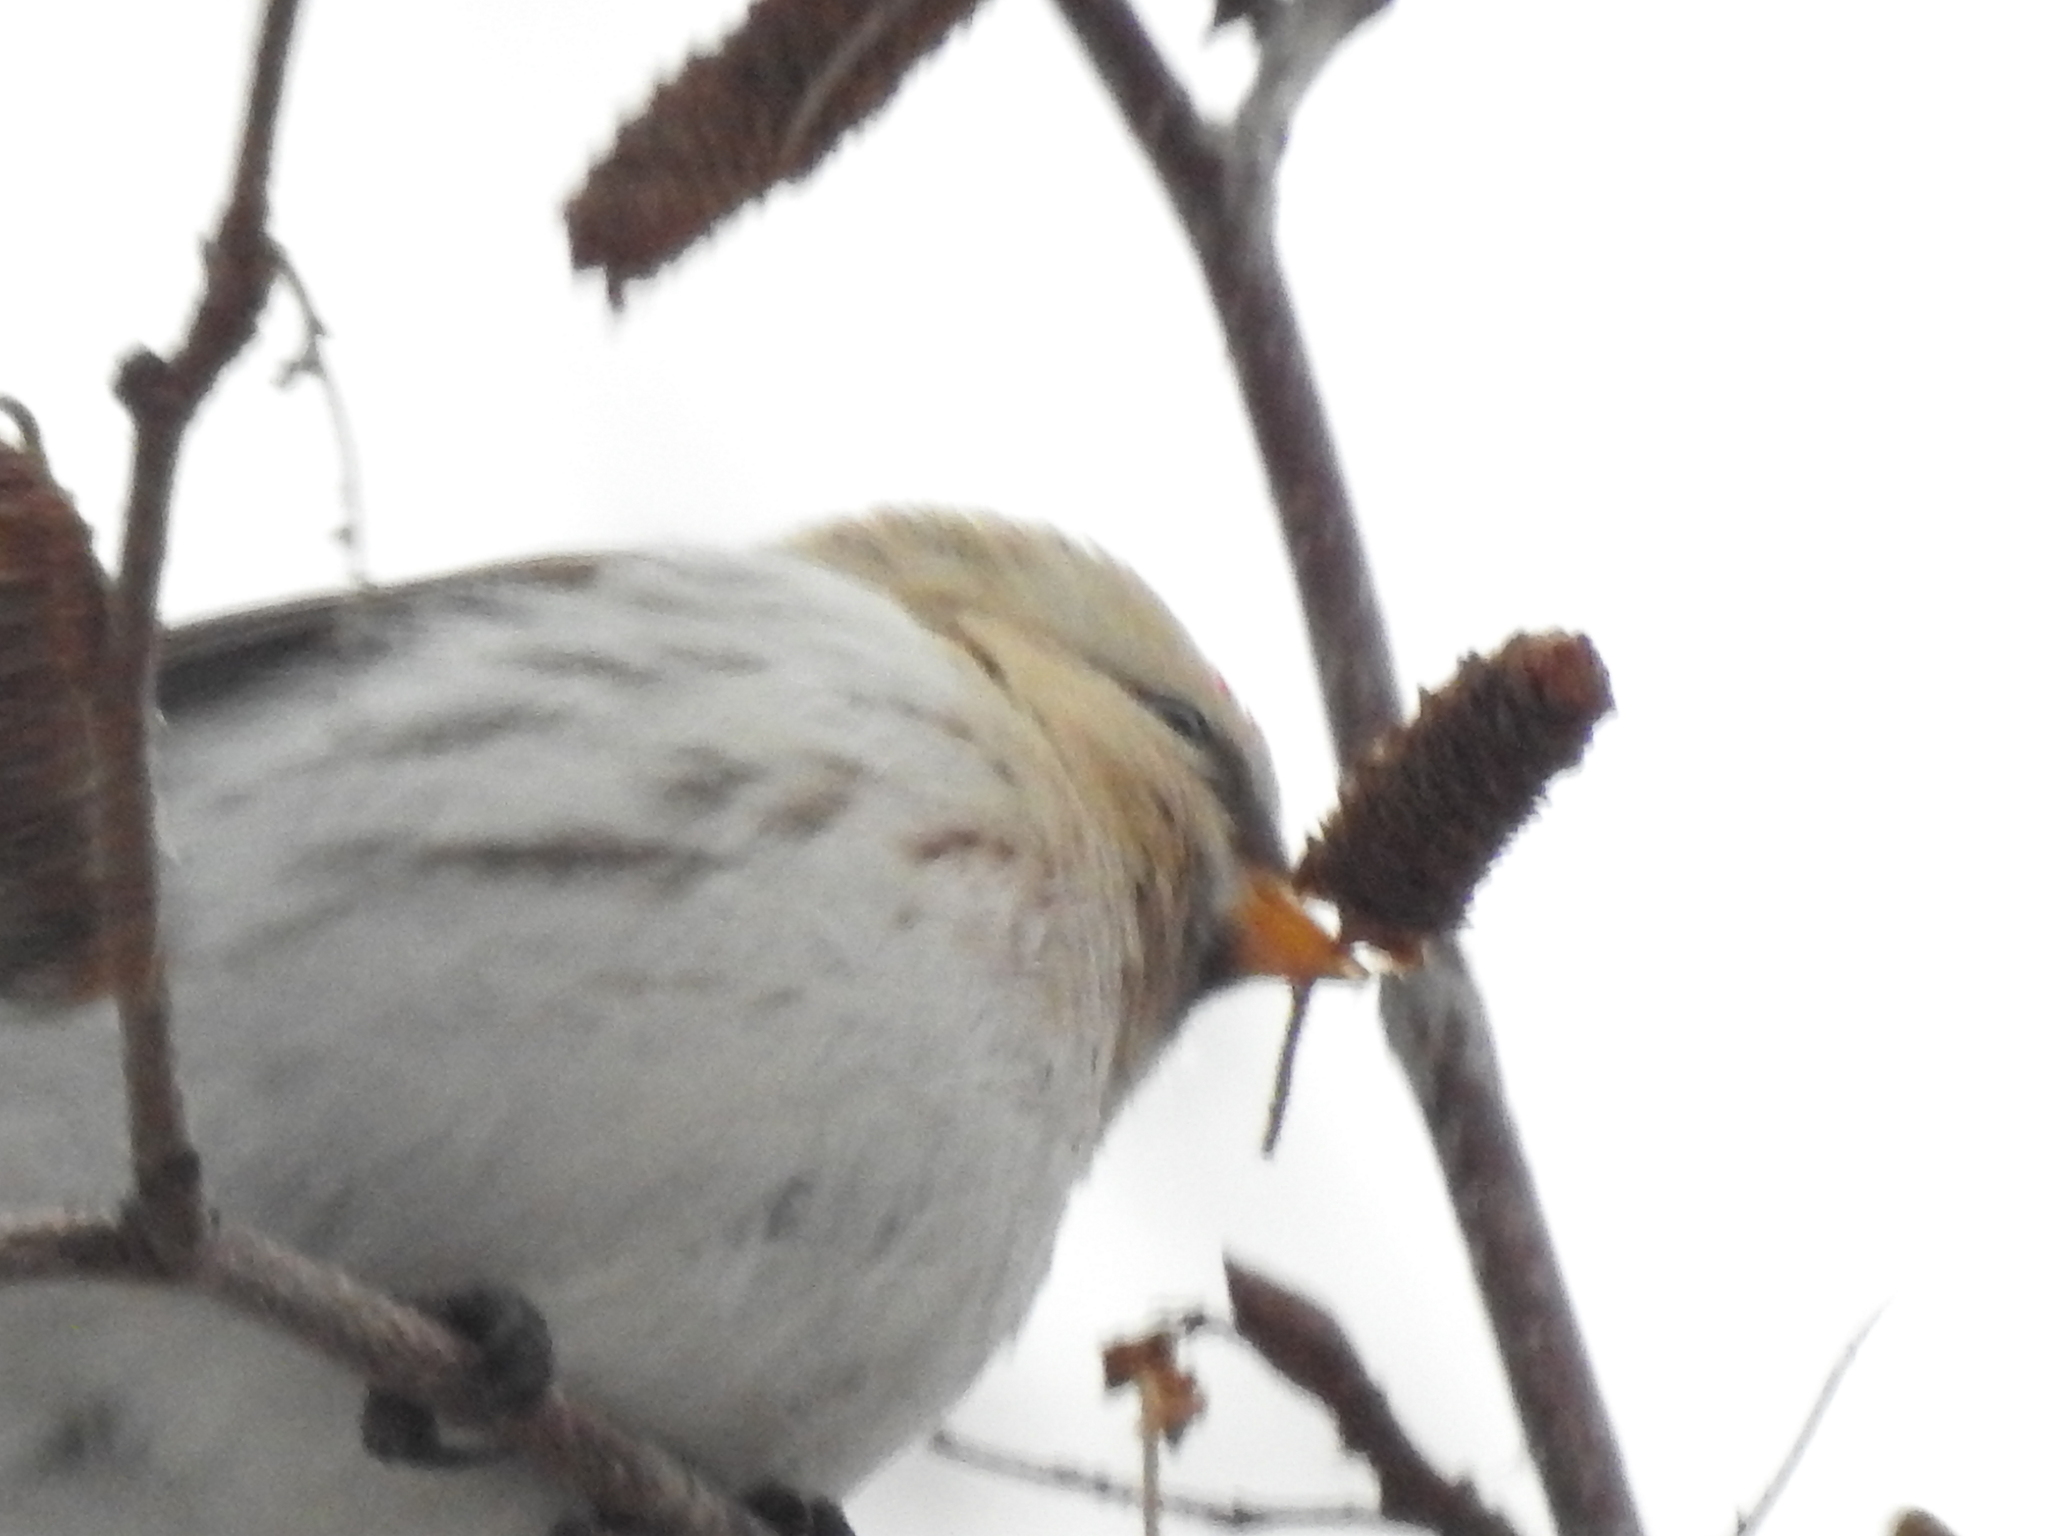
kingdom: Animalia
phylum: Chordata
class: Aves
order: Passeriformes
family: Fringillidae
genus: Acanthis
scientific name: Acanthis hornemanni
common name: Arctic redpoll
